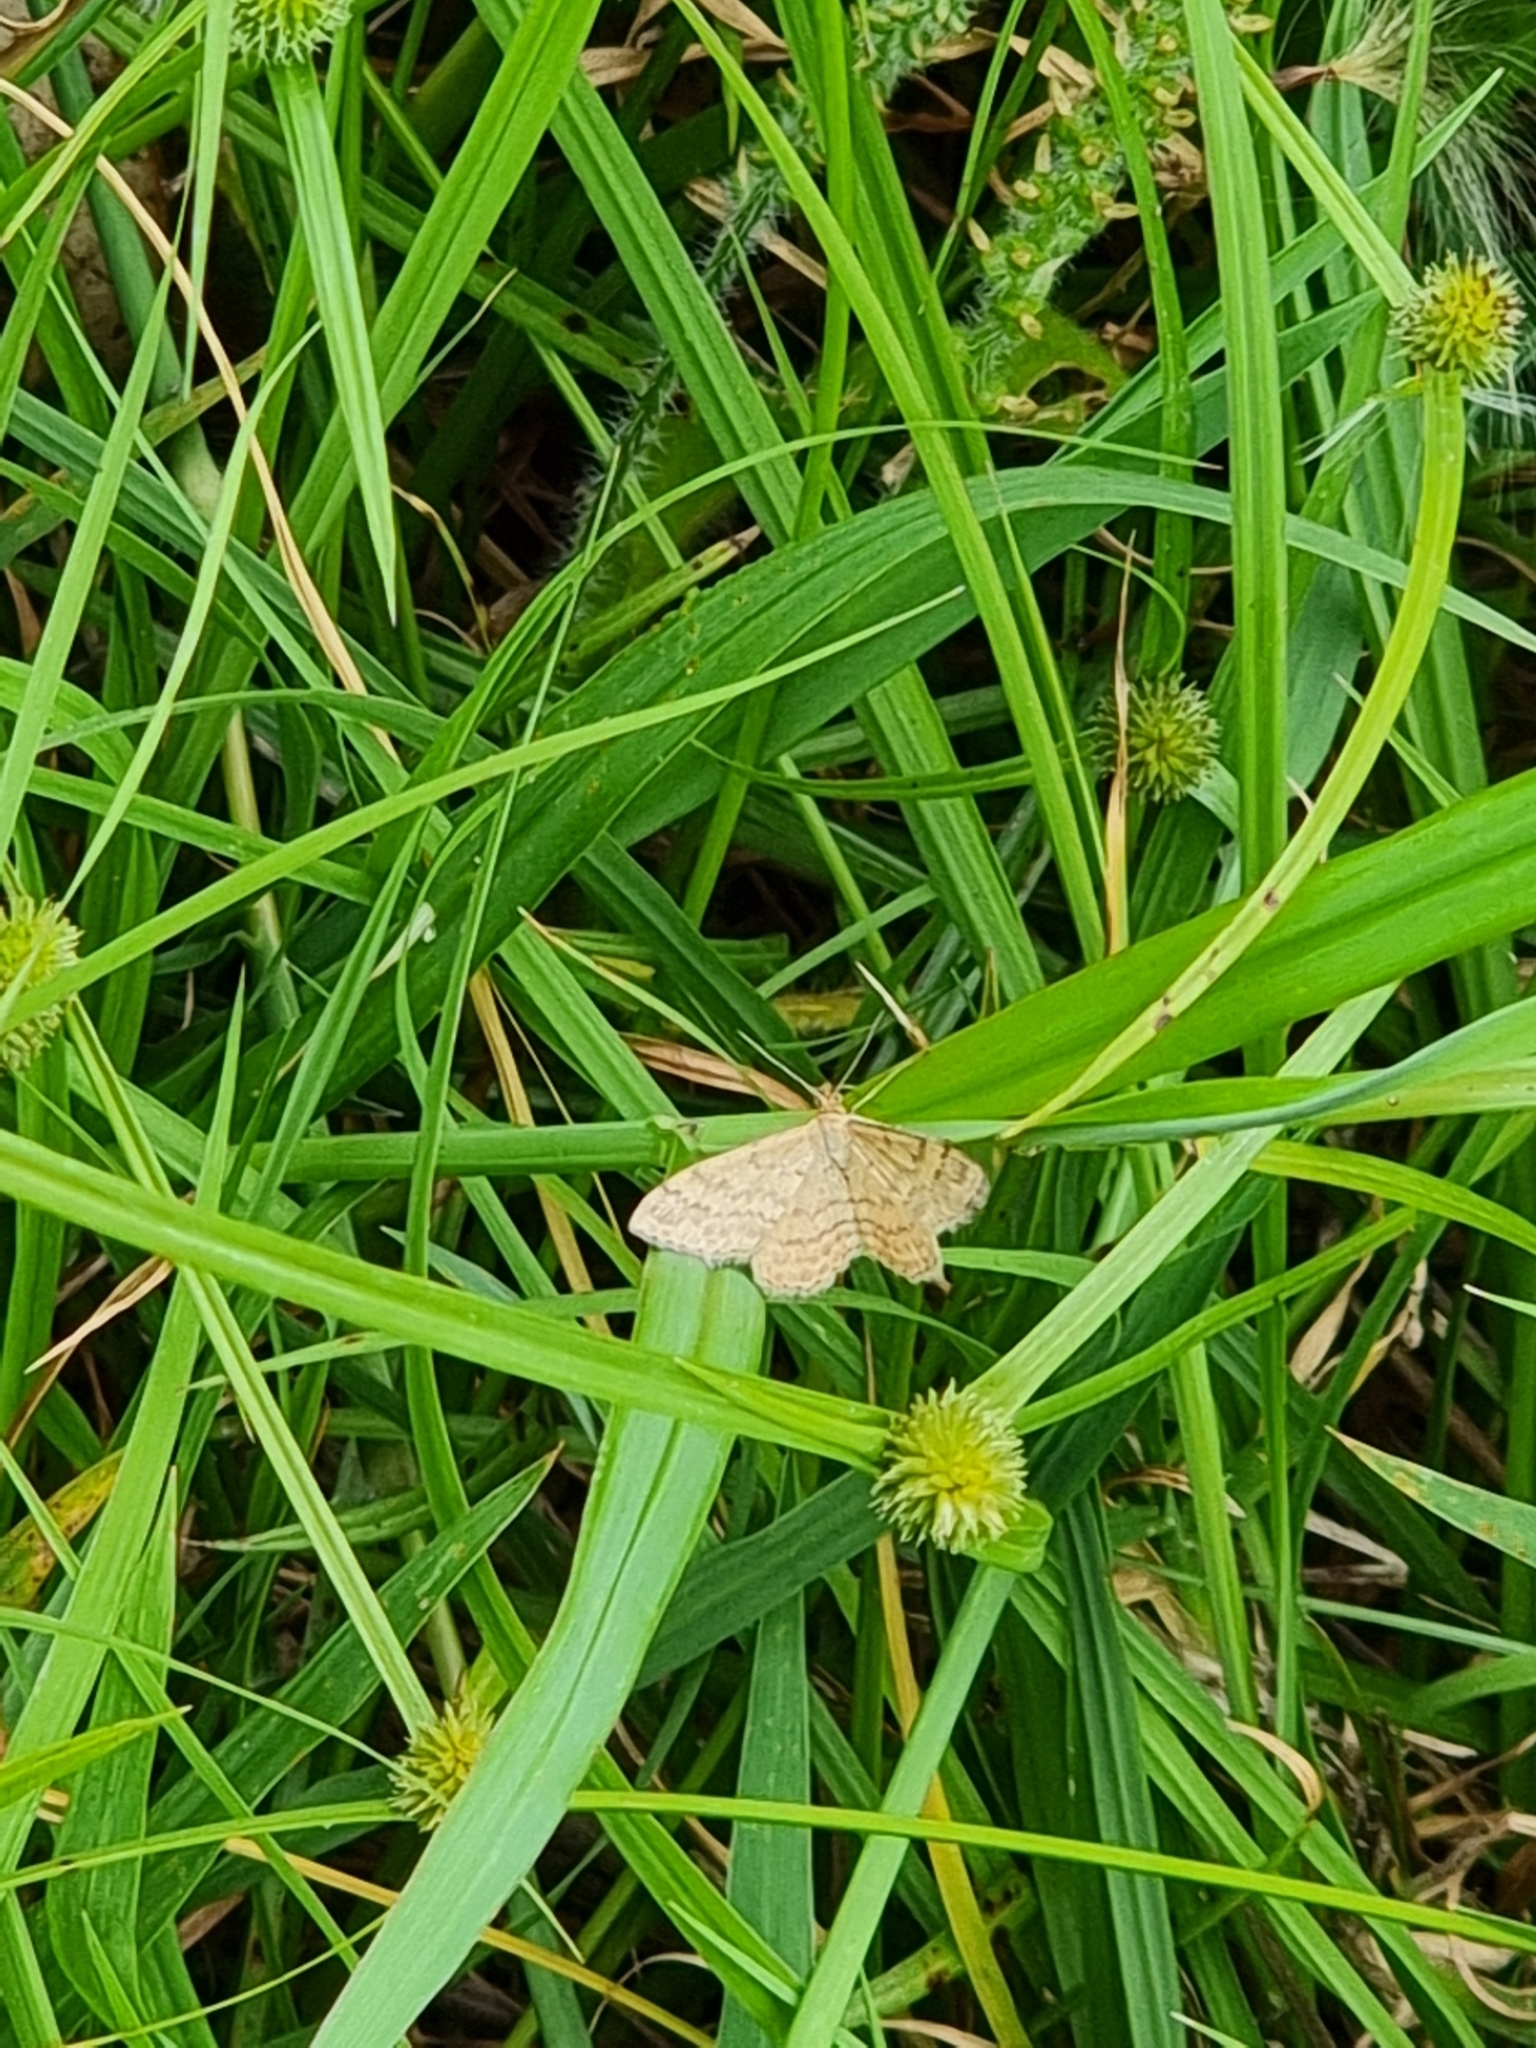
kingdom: Animalia
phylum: Arthropoda
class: Insecta
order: Lepidoptera
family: Geometridae
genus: Scopula
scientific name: Scopula rubraria
